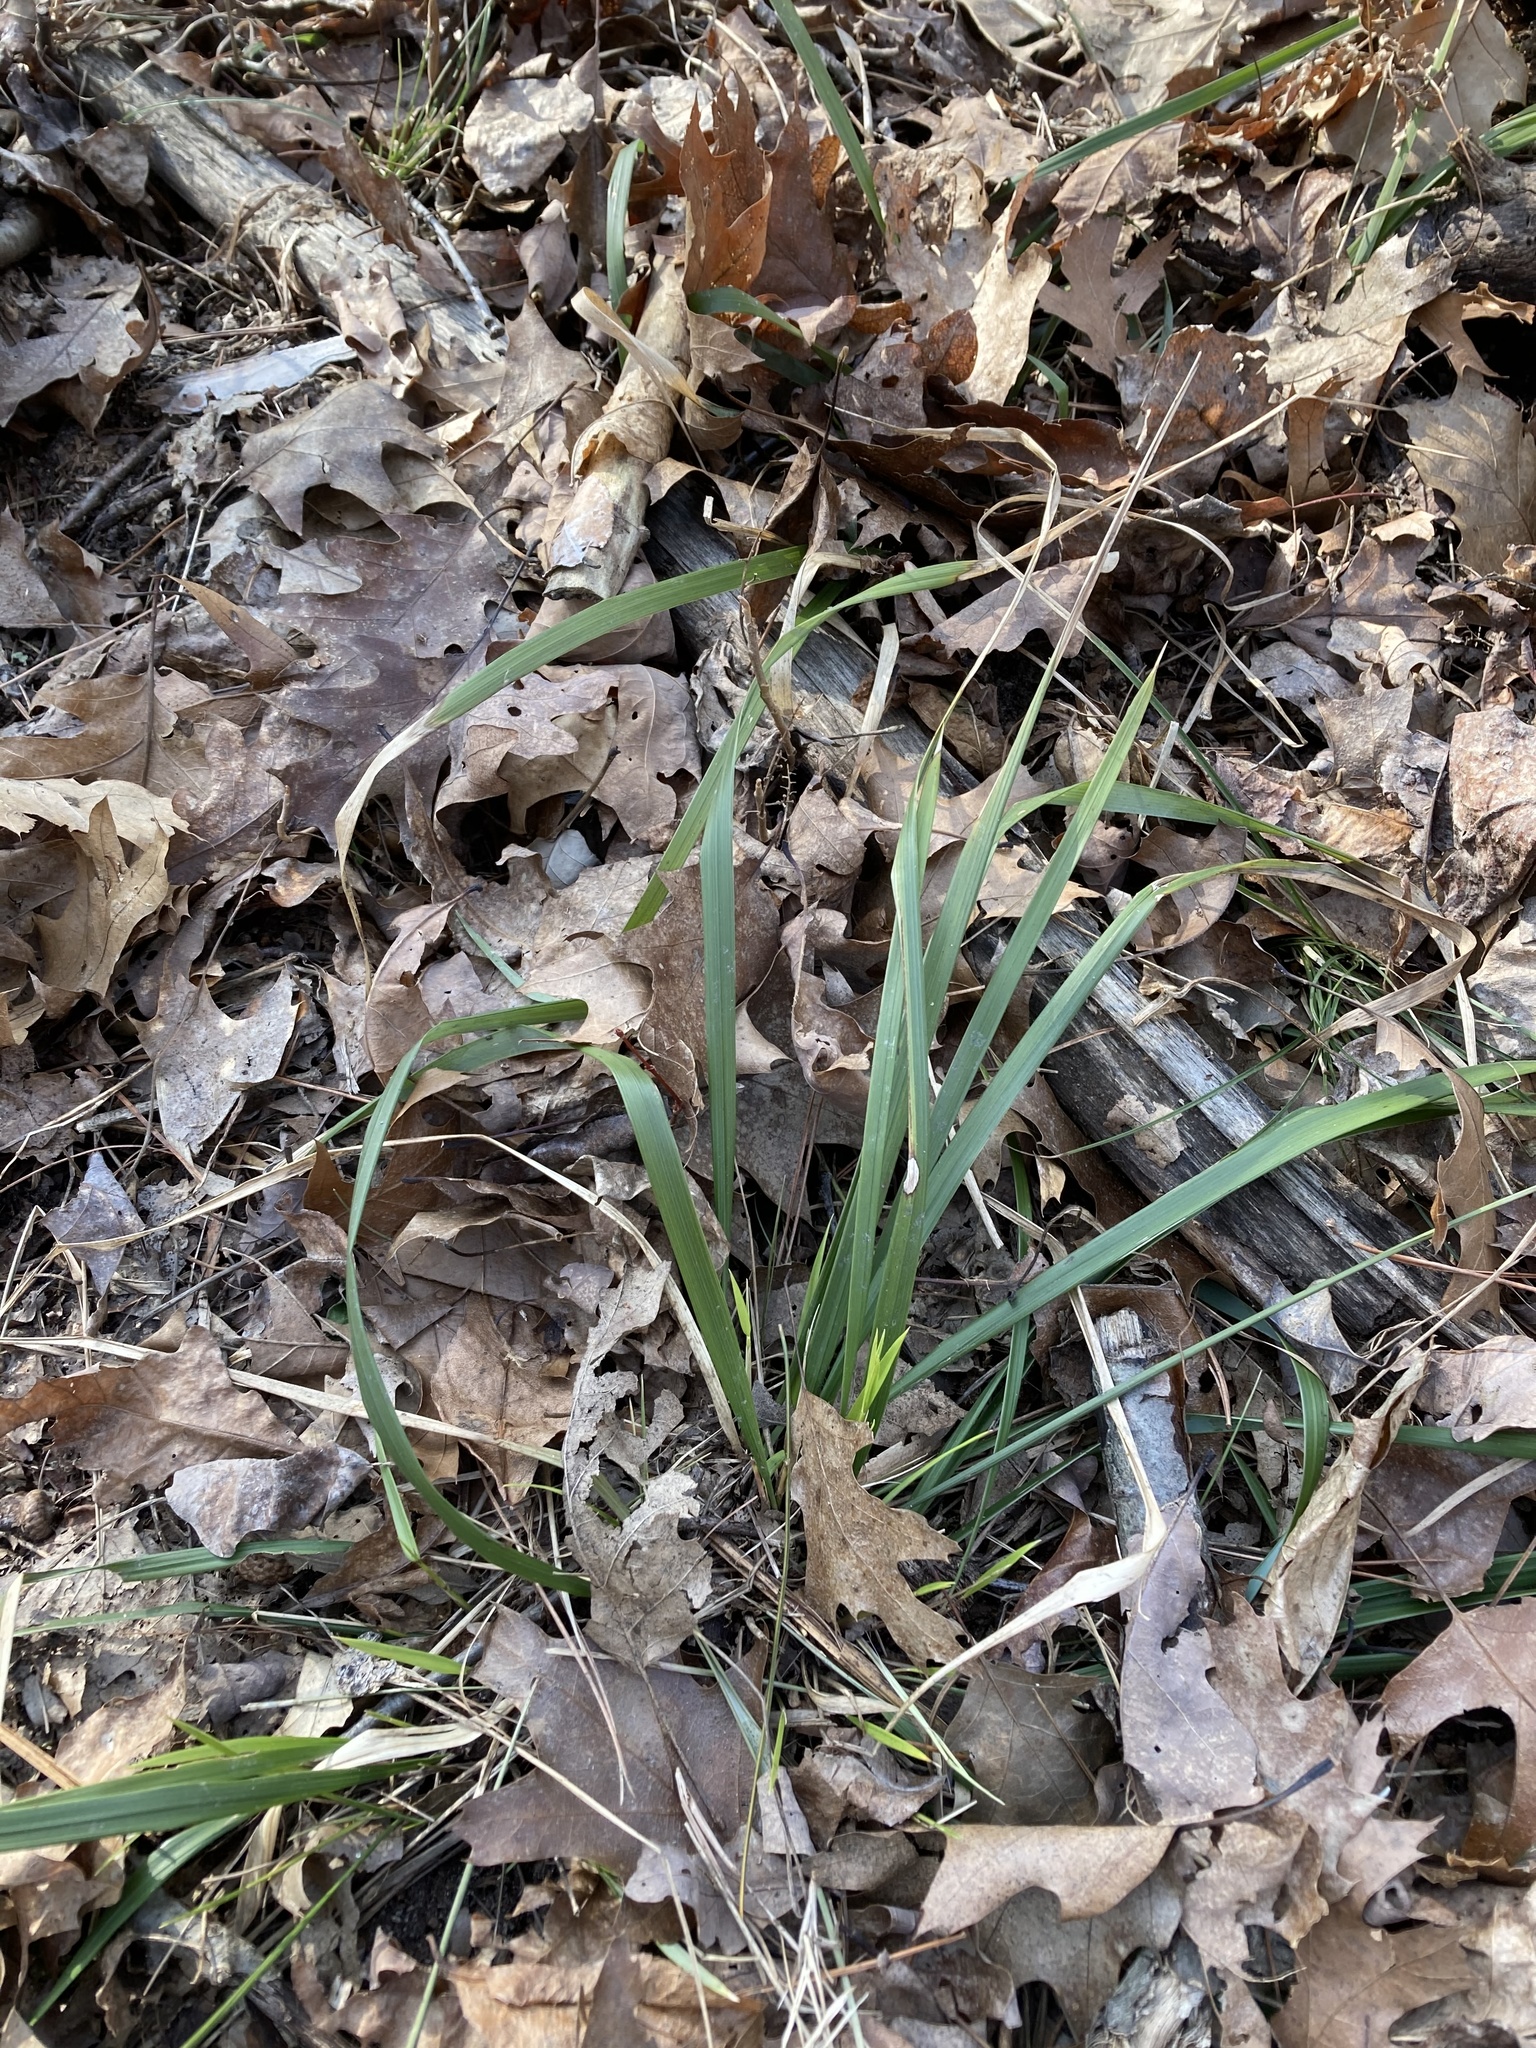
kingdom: Plantae
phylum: Tracheophyta
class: Liliopsida
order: Poales
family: Poaceae
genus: Oryzopsis
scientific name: Oryzopsis asperifolia
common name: Rough-leaved mountain rice
